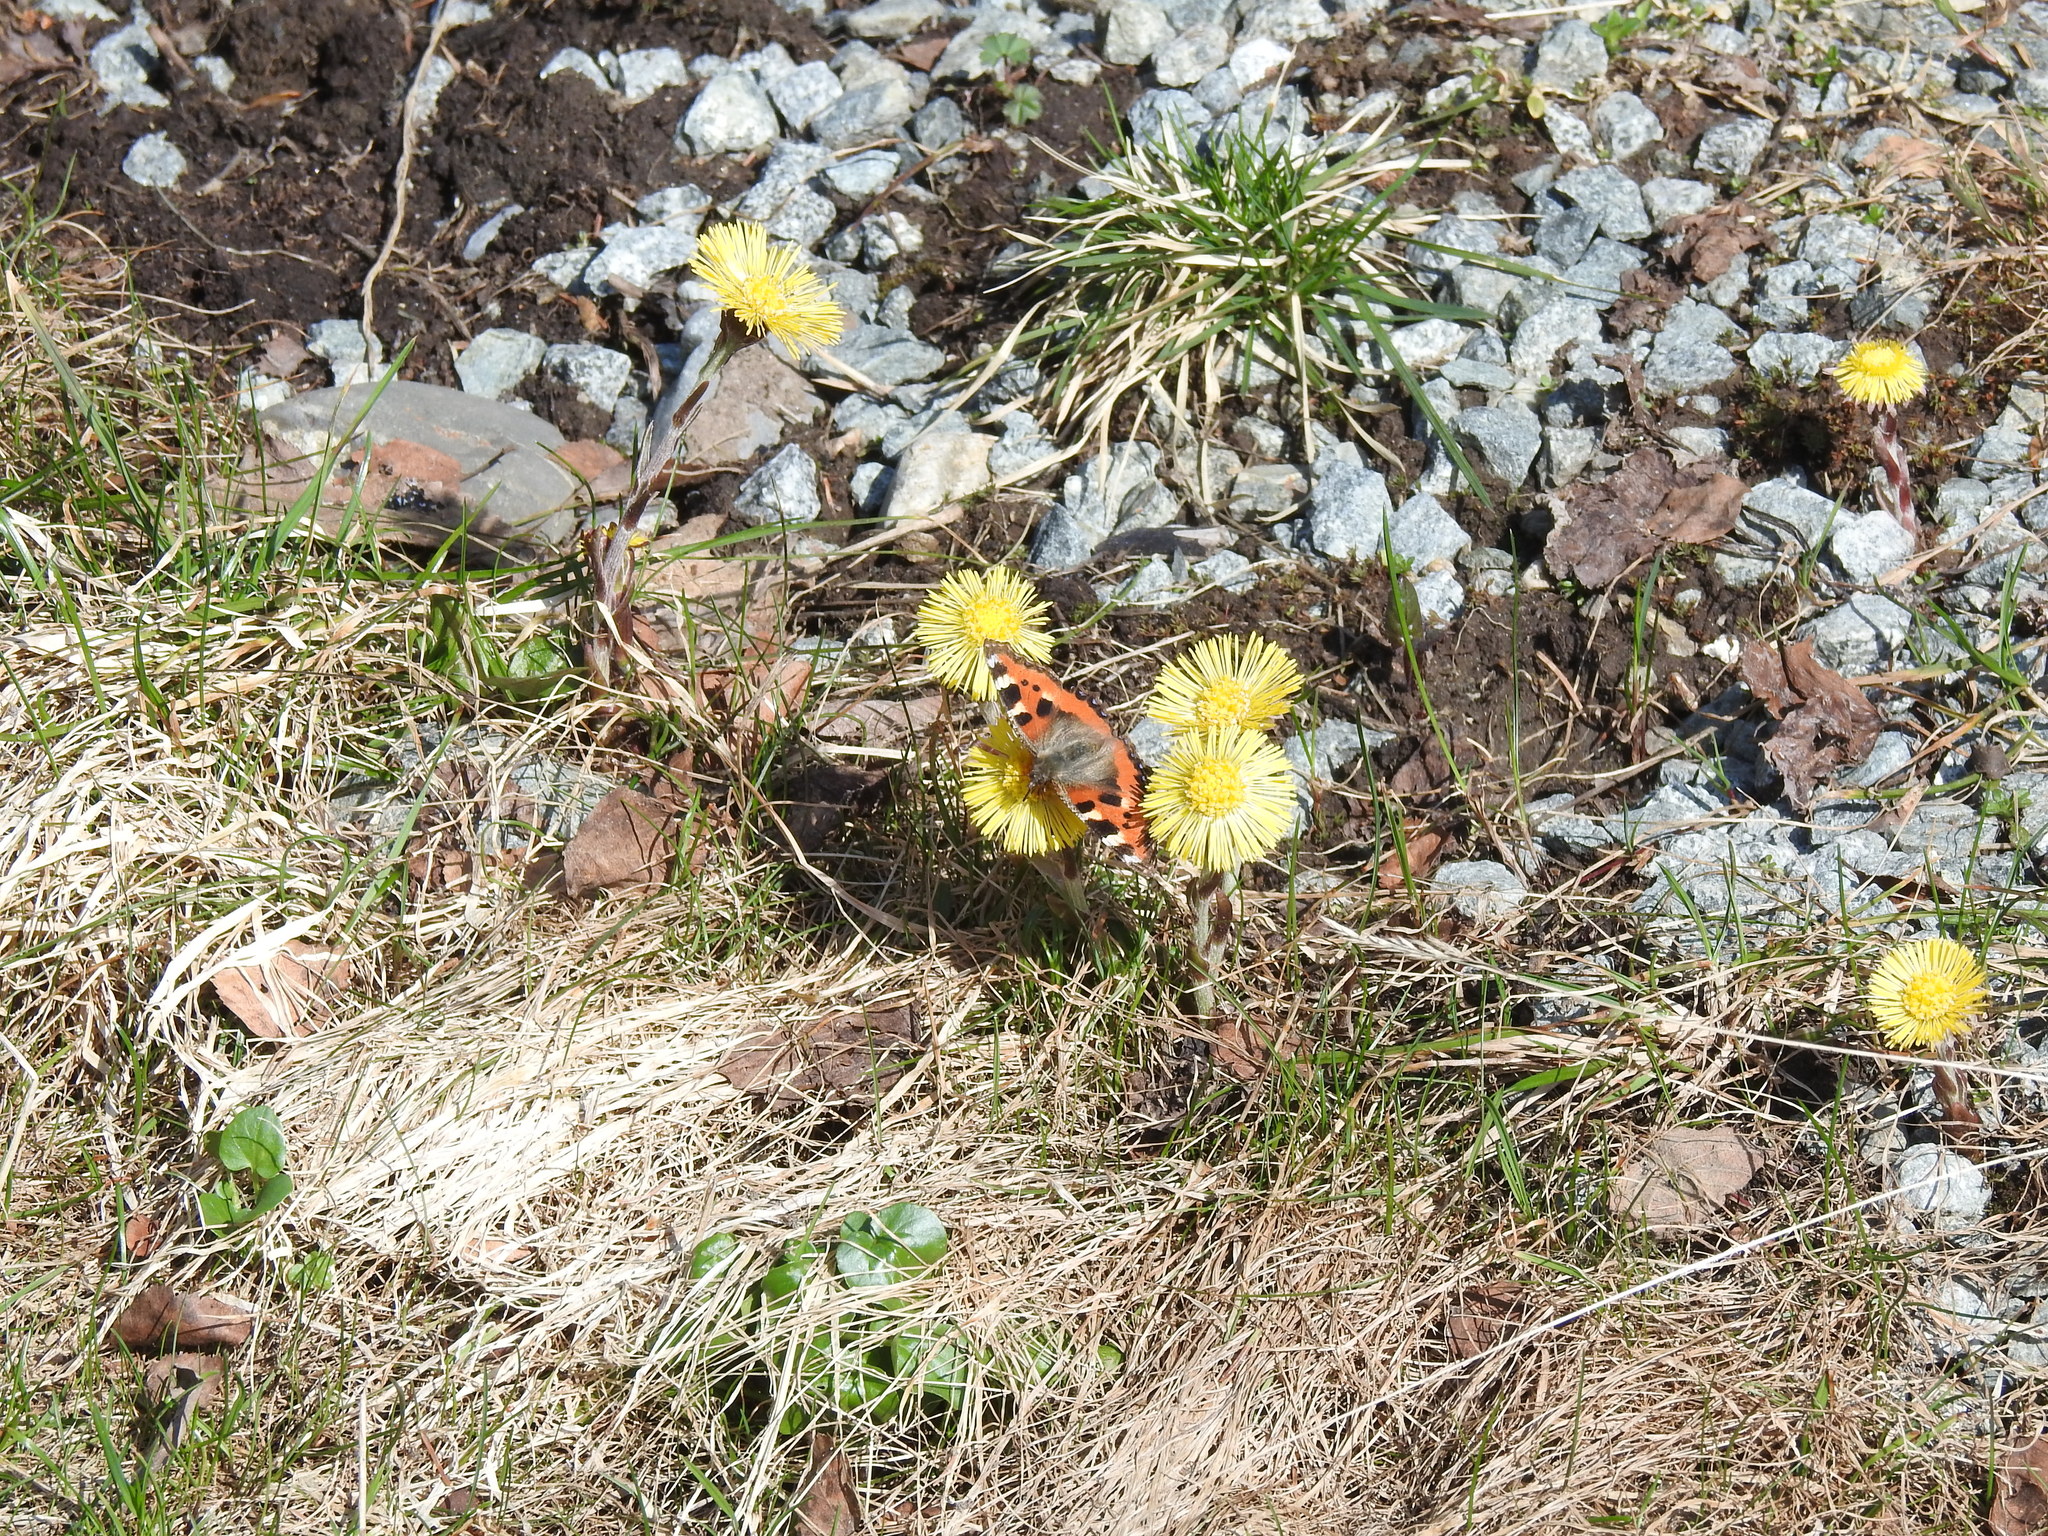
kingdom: Animalia
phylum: Arthropoda
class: Insecta
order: Lepidoptera
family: Nymphalidae
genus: Aglais
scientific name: Aglais urticae
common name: Small tortoiseshell
